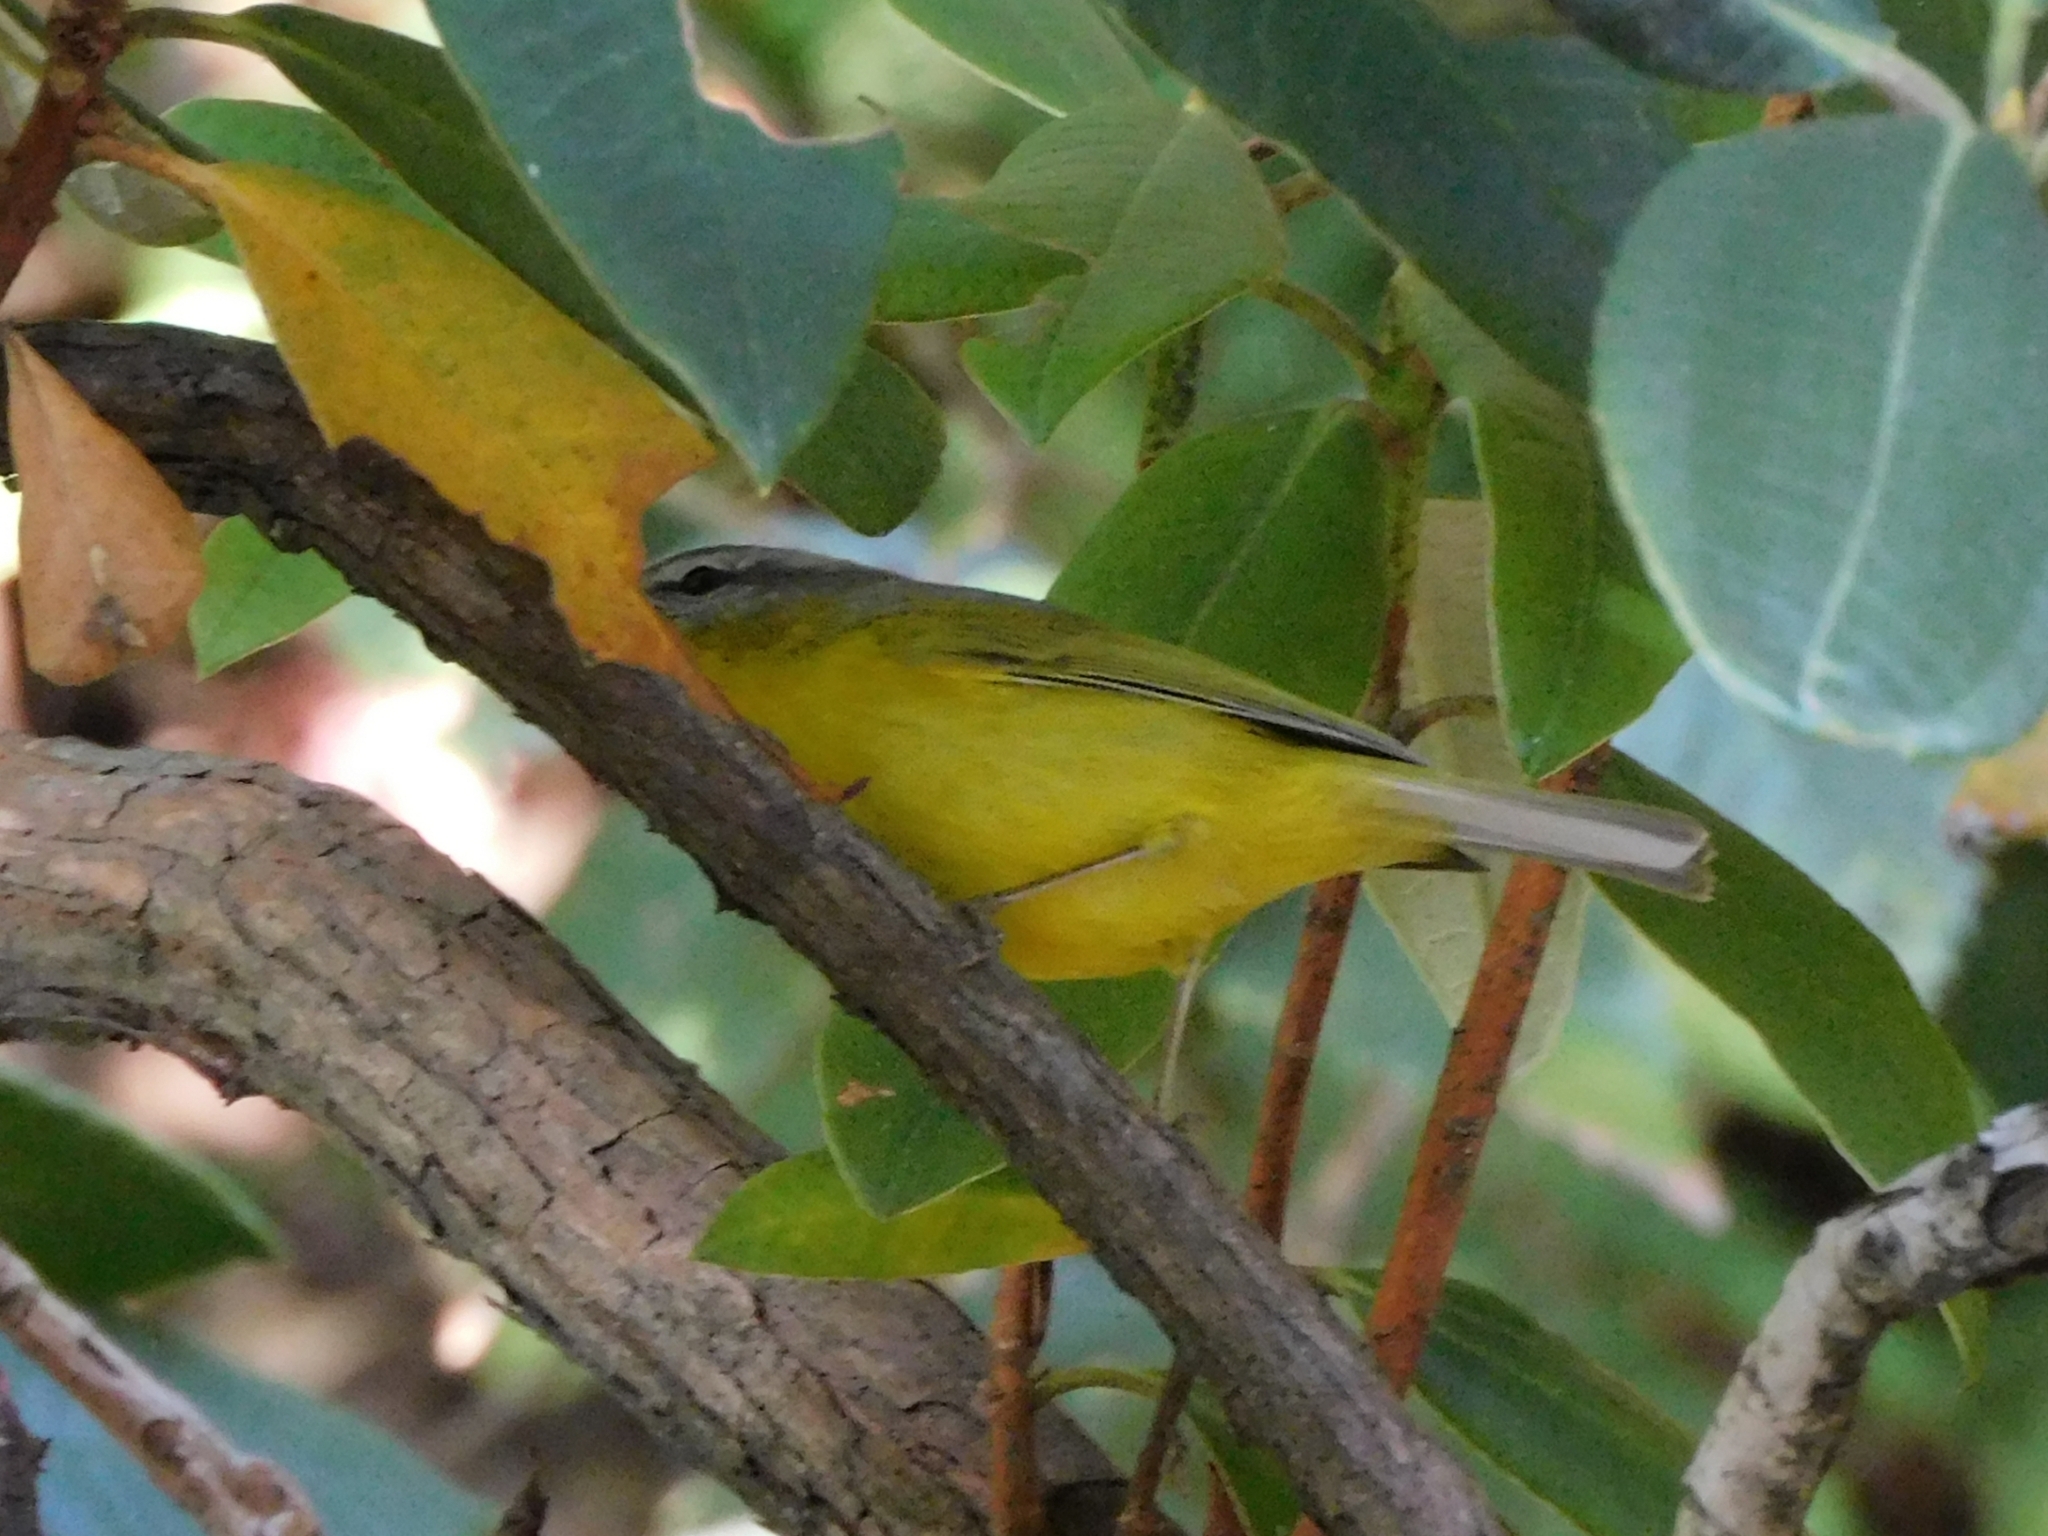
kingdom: Animalia
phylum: Chordata
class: Aves
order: Passeriformes
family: Phylloscopidae
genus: Phylloscopus
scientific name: Phylloscopus xanthoschistos
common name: Grey-hooded warbler
